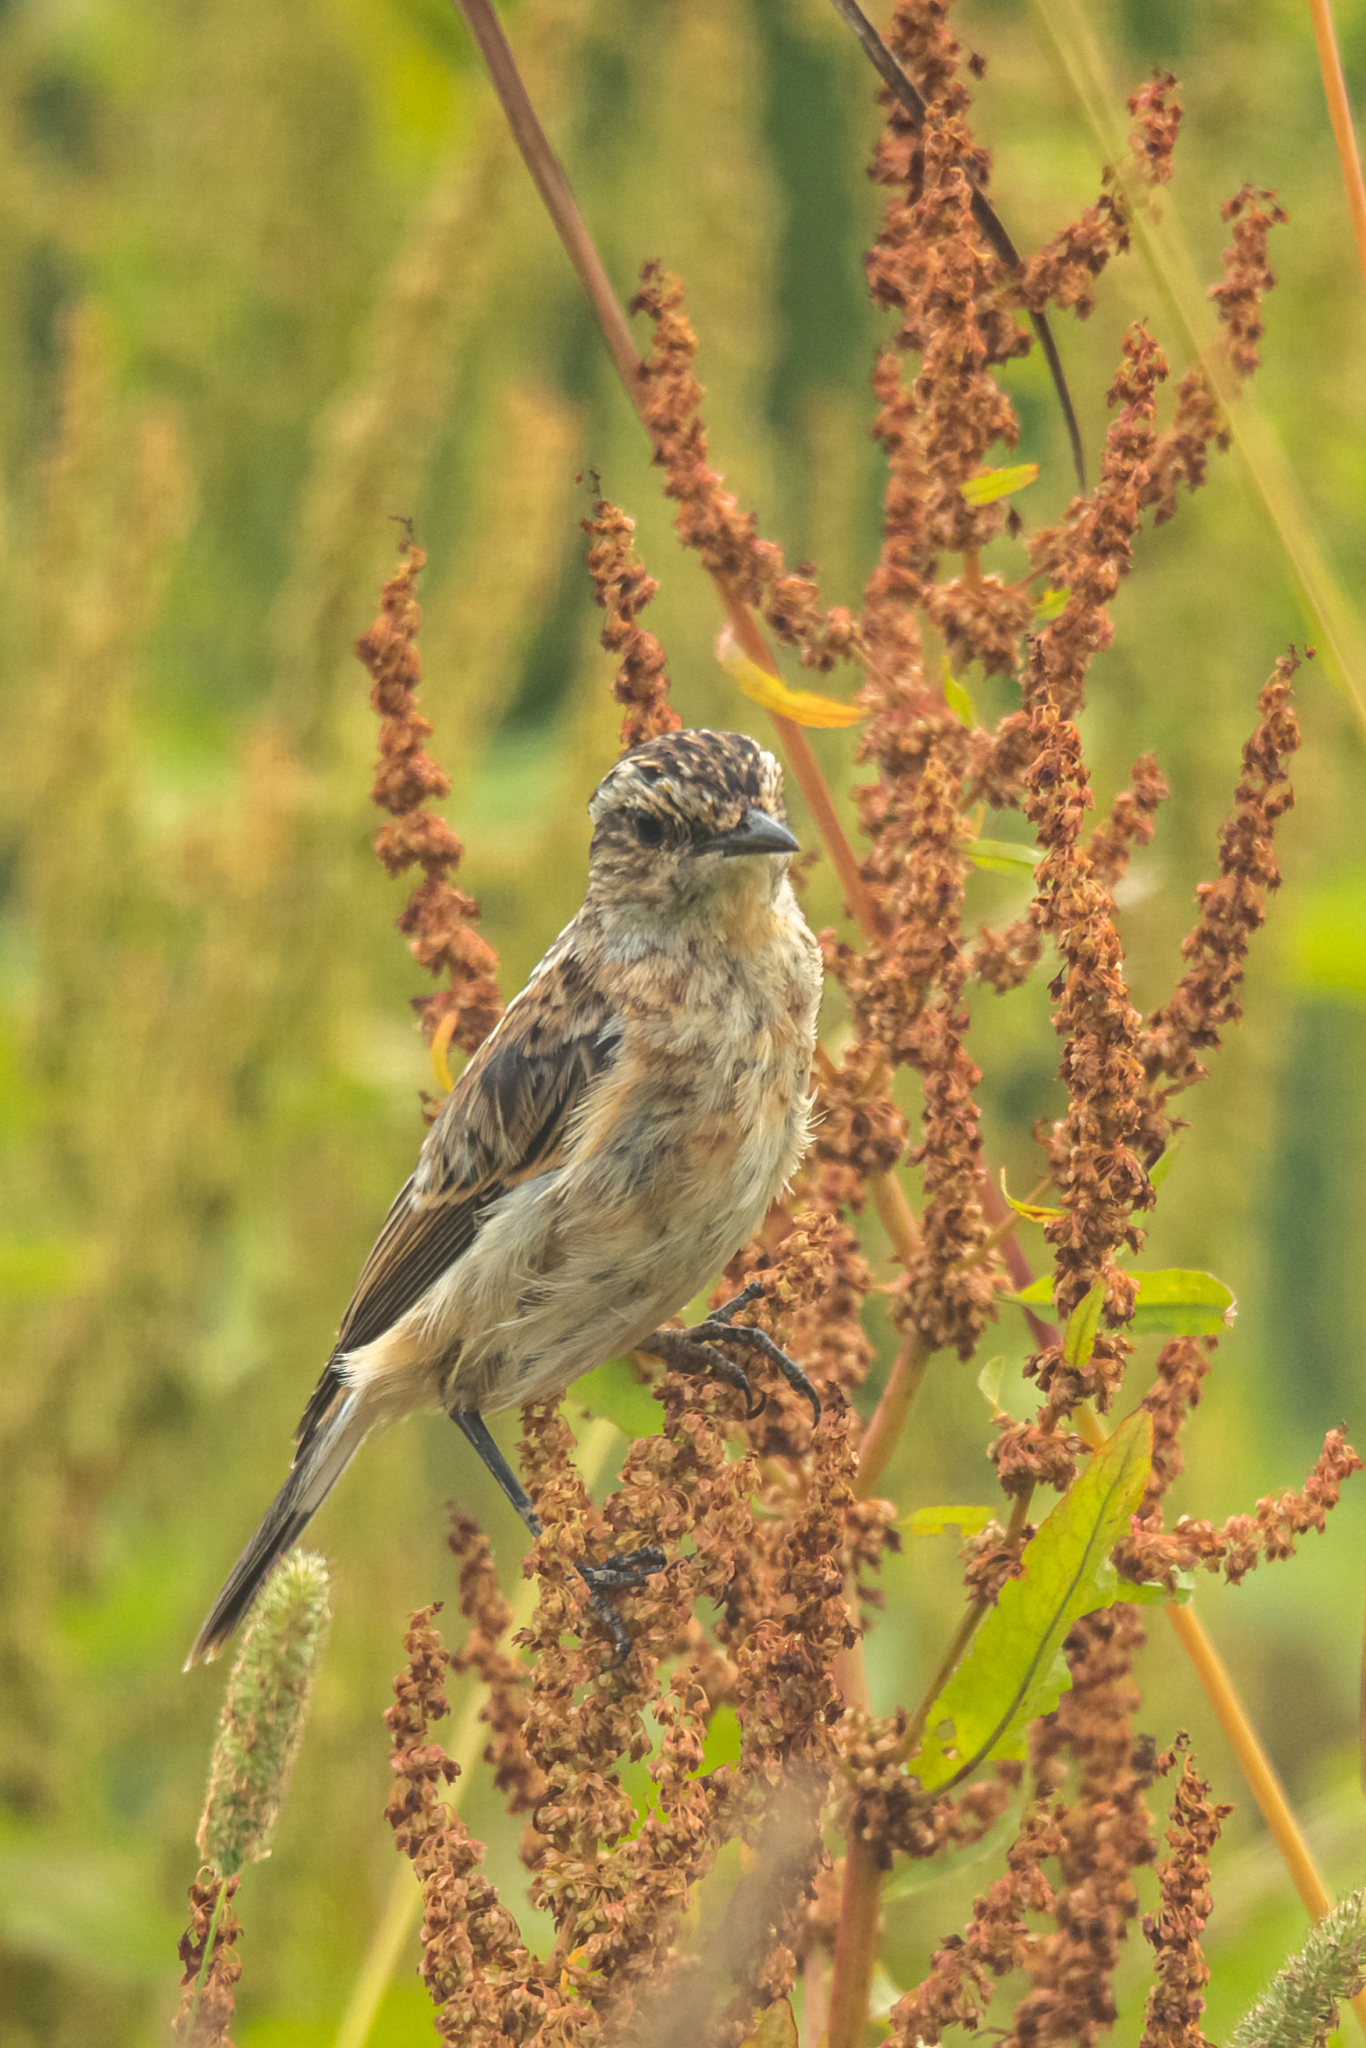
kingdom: Animalia
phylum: Chordata
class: Aves
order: Passeriformes
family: Muscicapidae
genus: Saxicola
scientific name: Saxicola rubetra
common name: Whinchat
